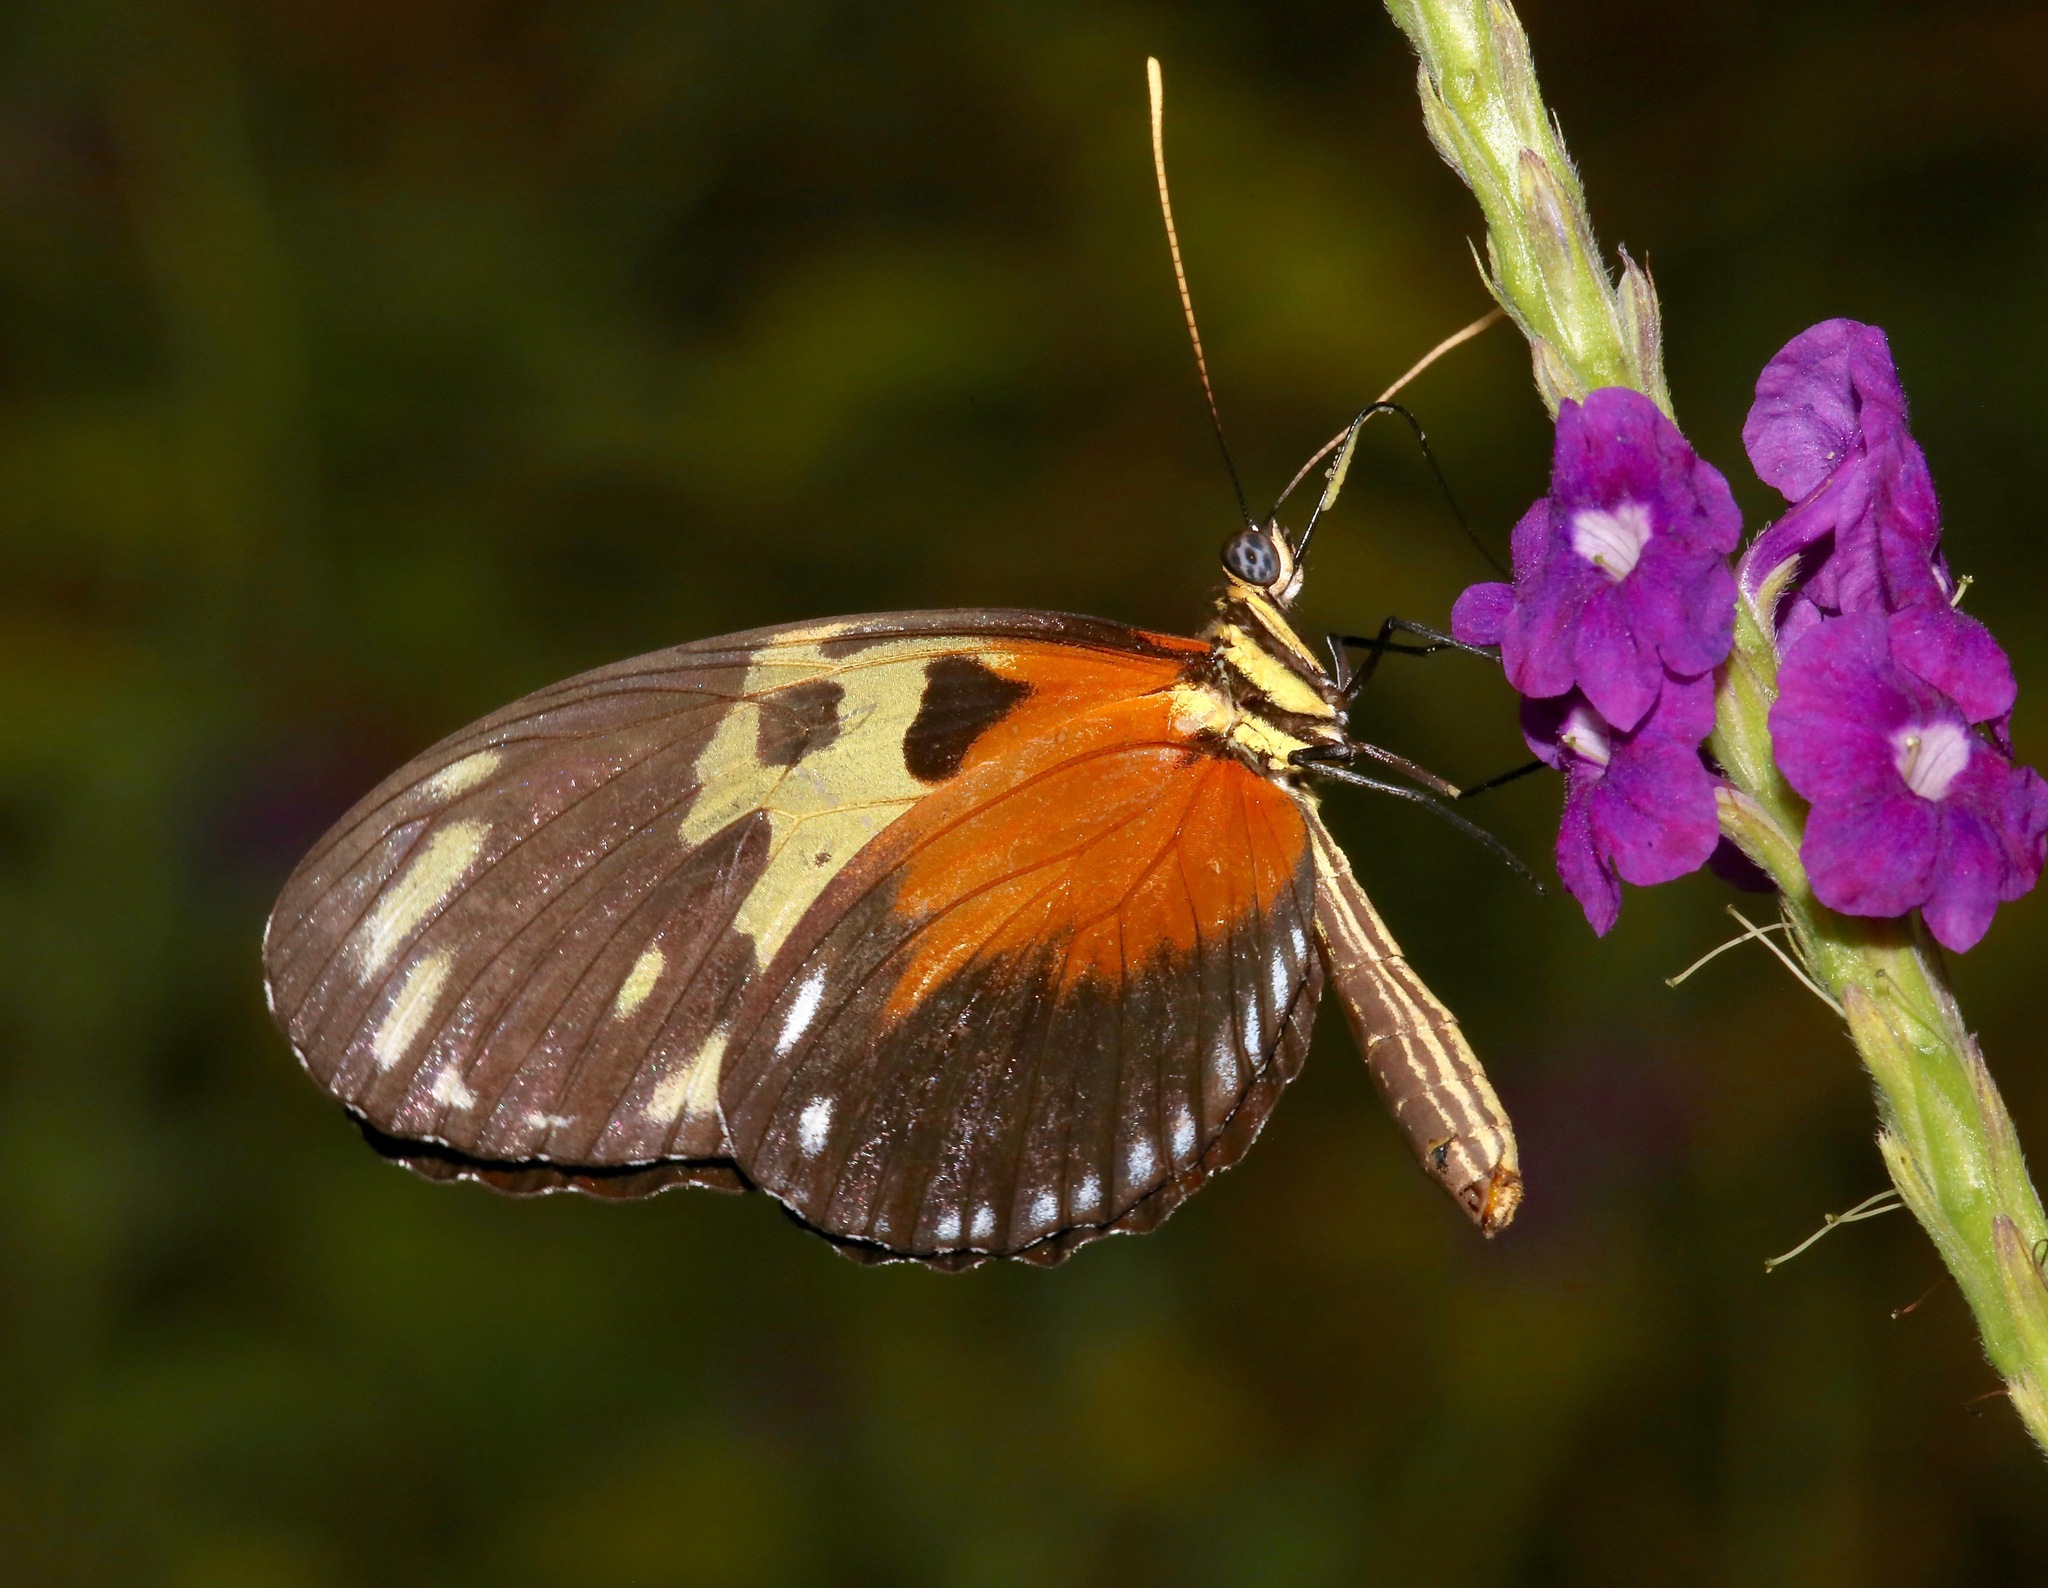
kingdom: Animalia
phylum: Arthropoda
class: Insecta
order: Lepidoptera
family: Nymphalidae
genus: Heliconius
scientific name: Heliconius hecale
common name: Tiger longwing
